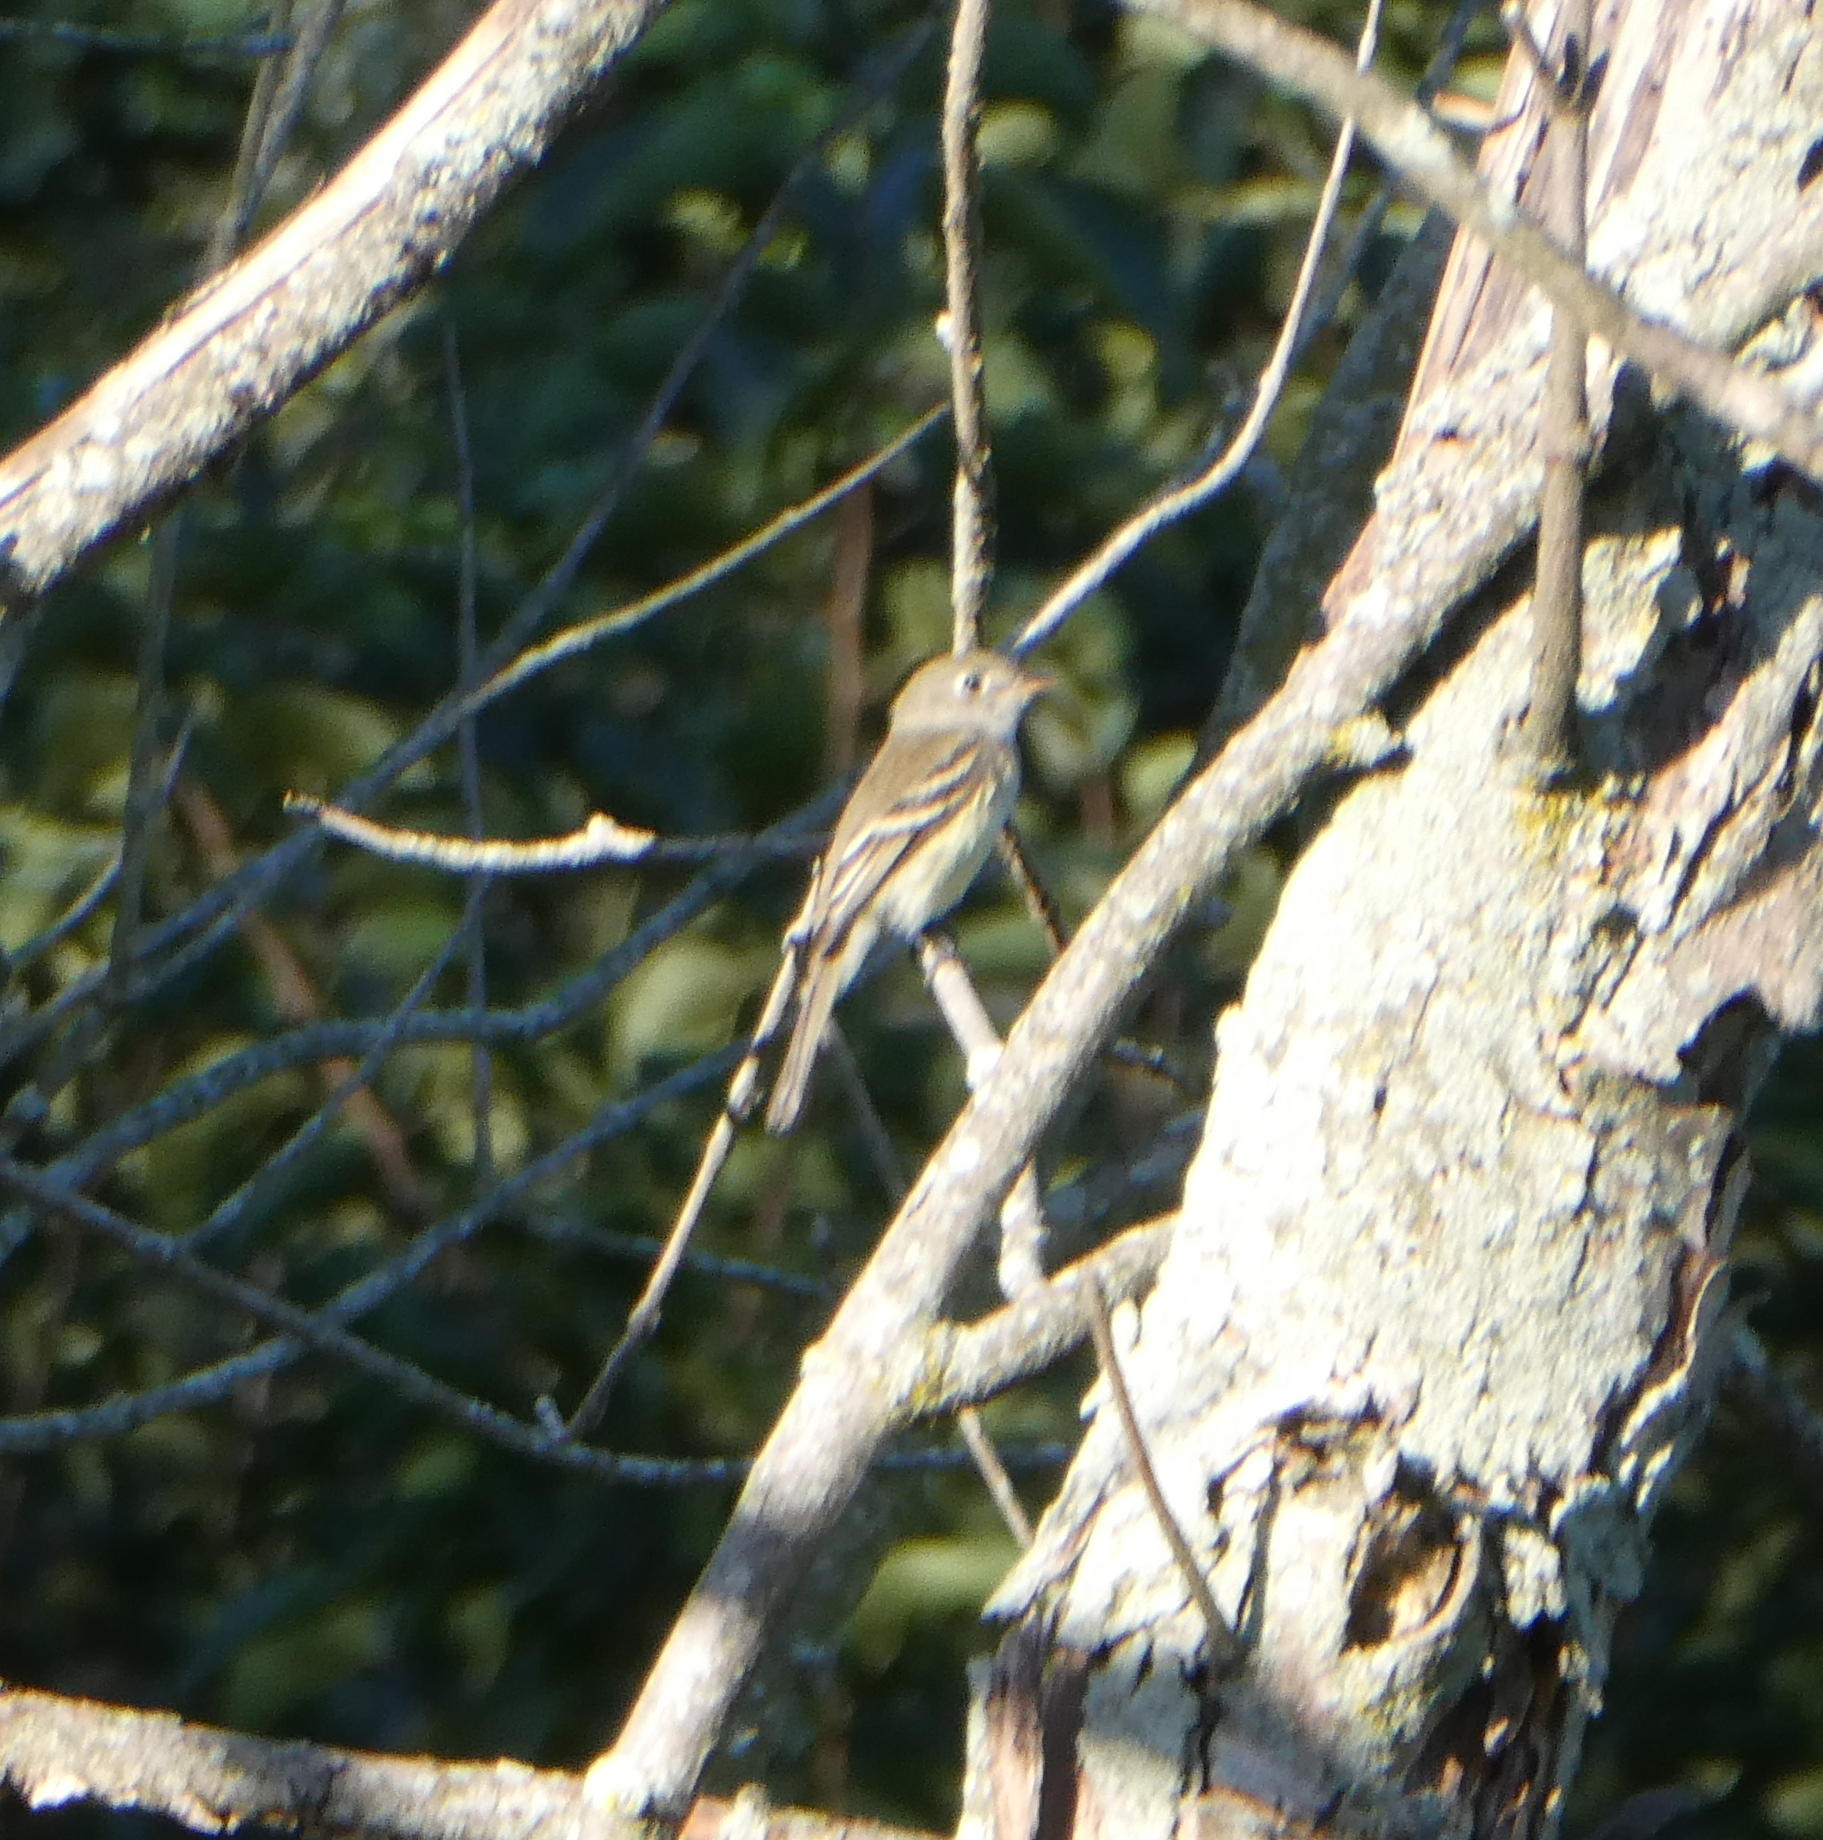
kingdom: Animalia
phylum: Chordata
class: Aves
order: Passeriformes
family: Tyrannidae
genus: Empidonax
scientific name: Empidonax minimus
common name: Least flycatcher
